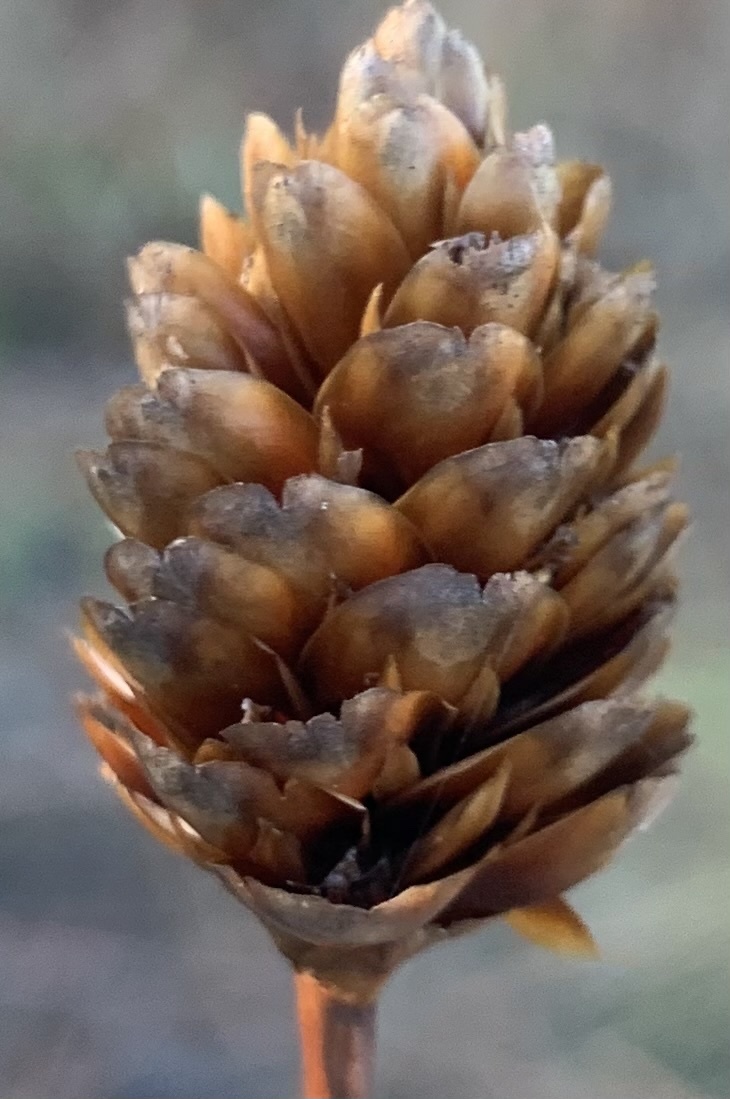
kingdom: Plantae
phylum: Tracheophyta
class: Liliopsida
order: Poales
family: Xyridaceae
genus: Xyris
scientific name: Xyris ambigua
